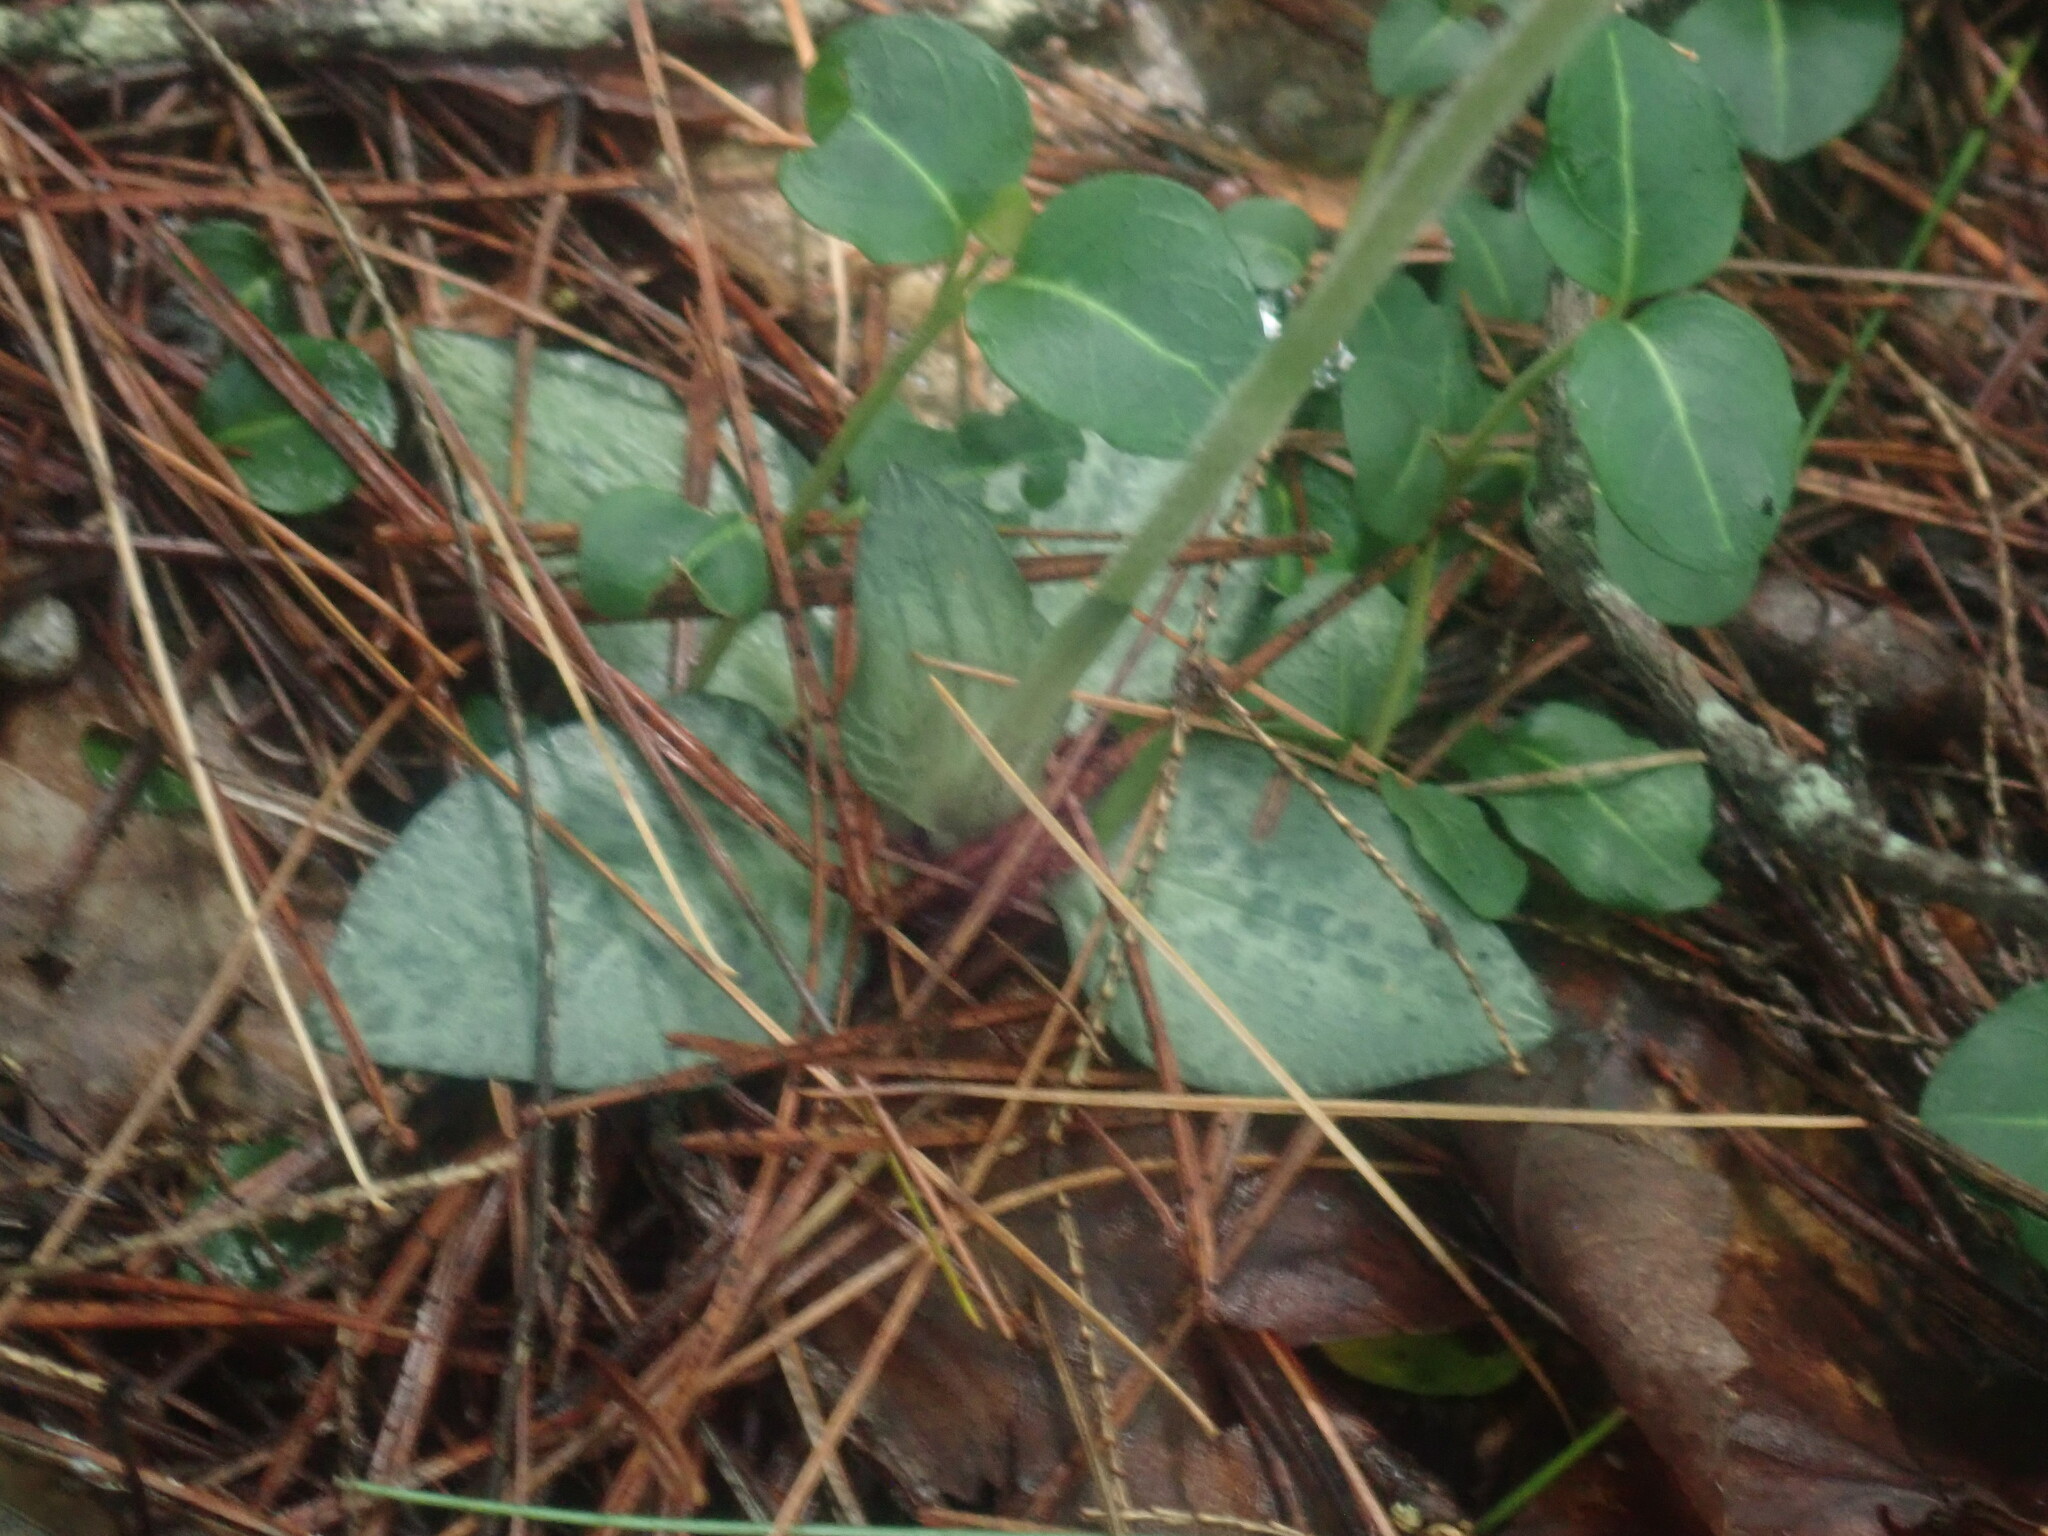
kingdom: Plantae
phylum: Tracheophyta
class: Liliopsida
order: Asparagales
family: Orchidaceae
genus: Goodyera
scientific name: Goodyera tesselata
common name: Checkered rattlesnake-plantain
